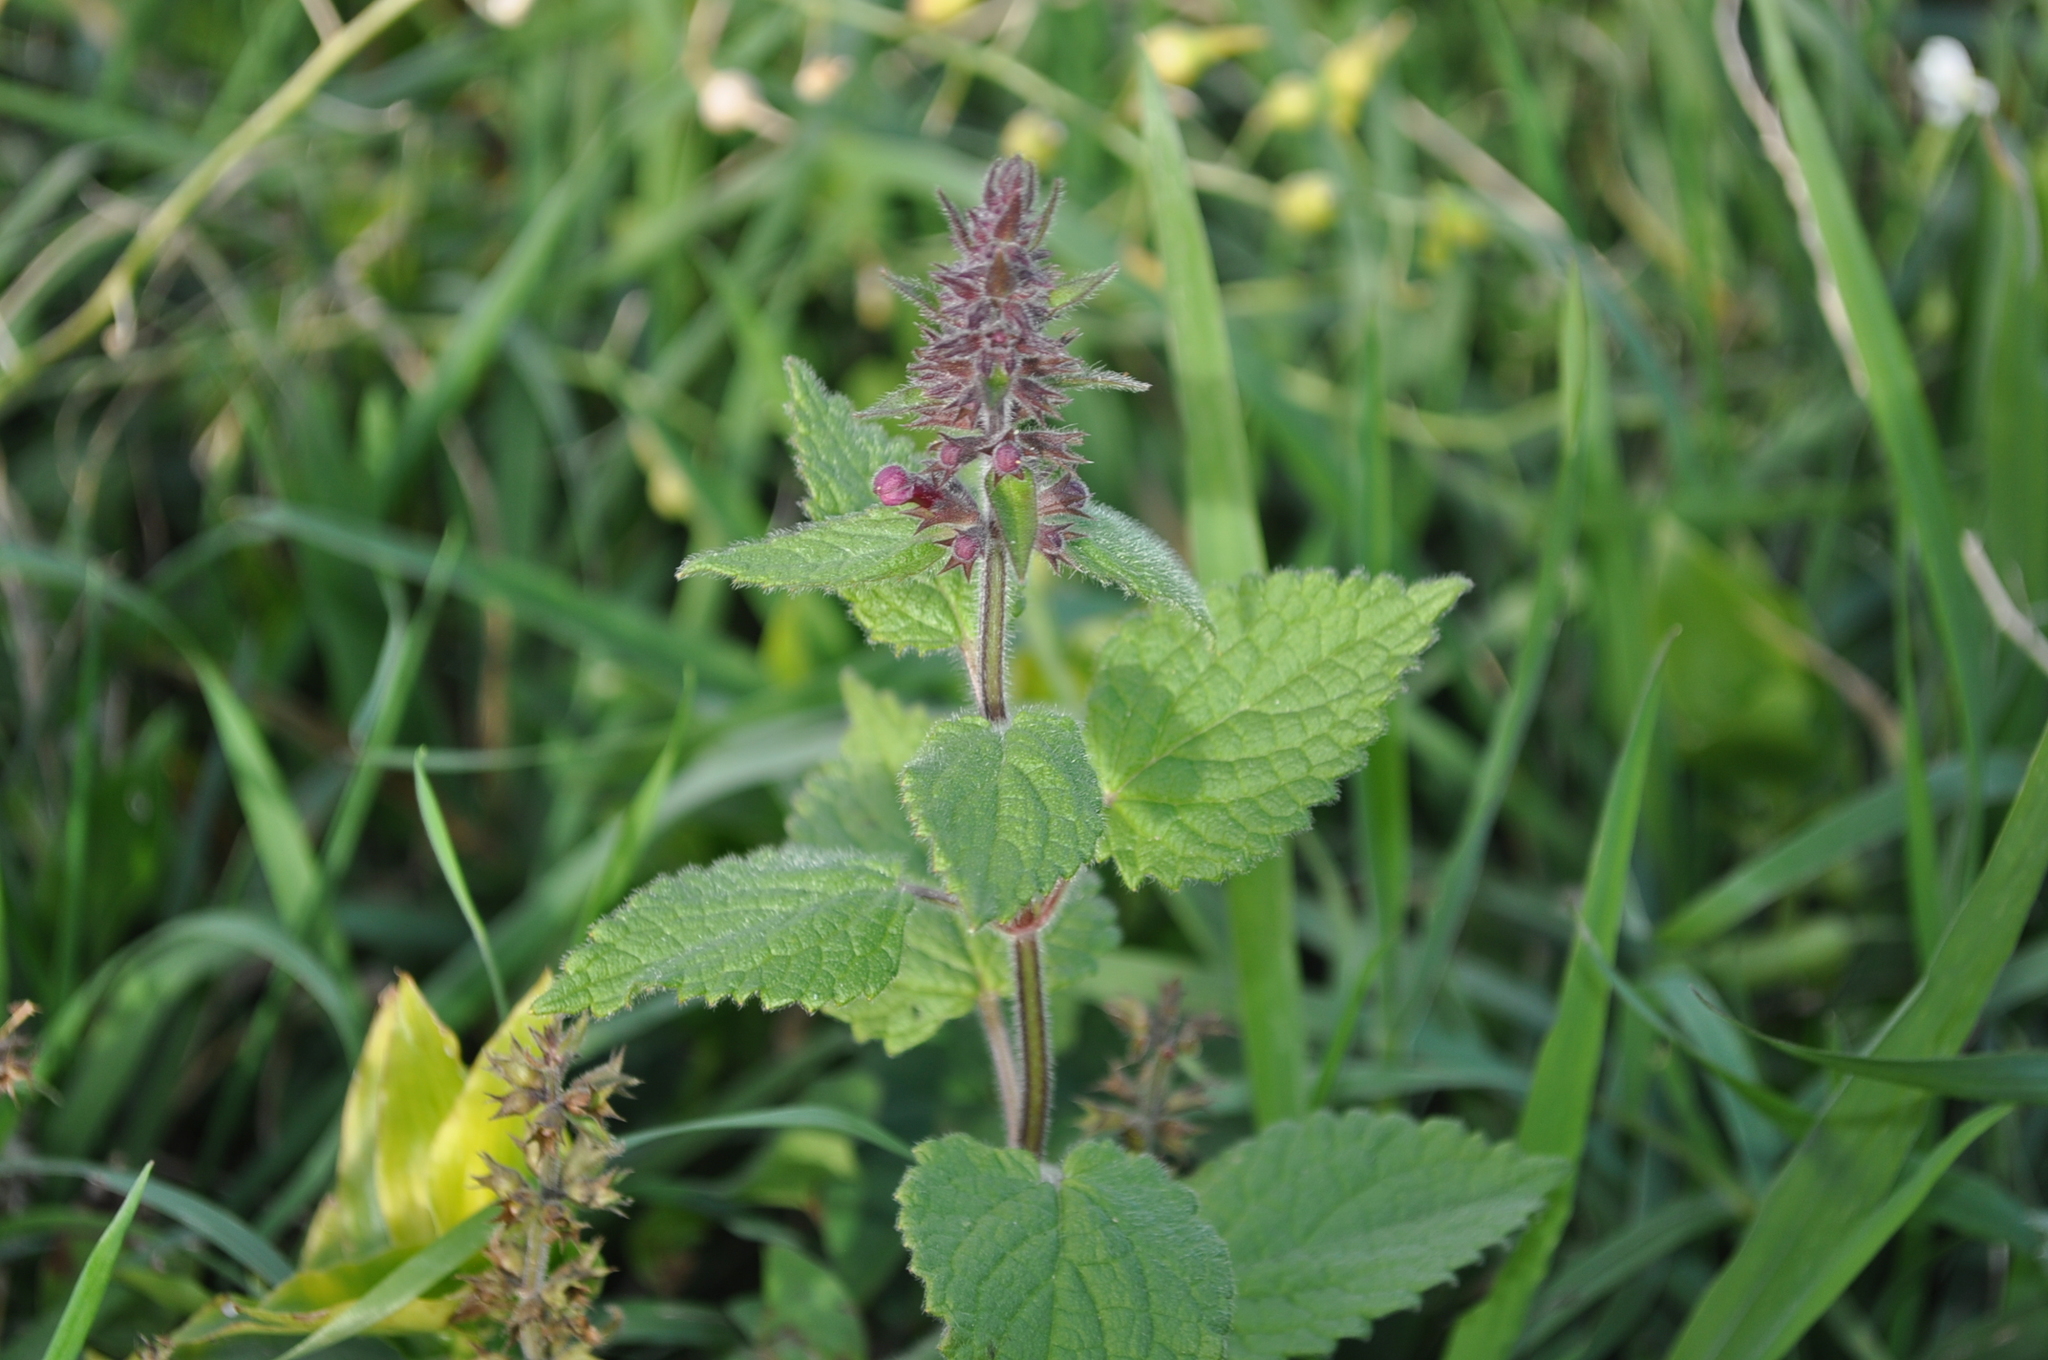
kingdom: Plantae
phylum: Tracheophyta
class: Magnoliopsida
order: Lamiales
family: Lamiaceae
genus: Stachys
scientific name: Stachys sylvatica
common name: Hedge woundwort
